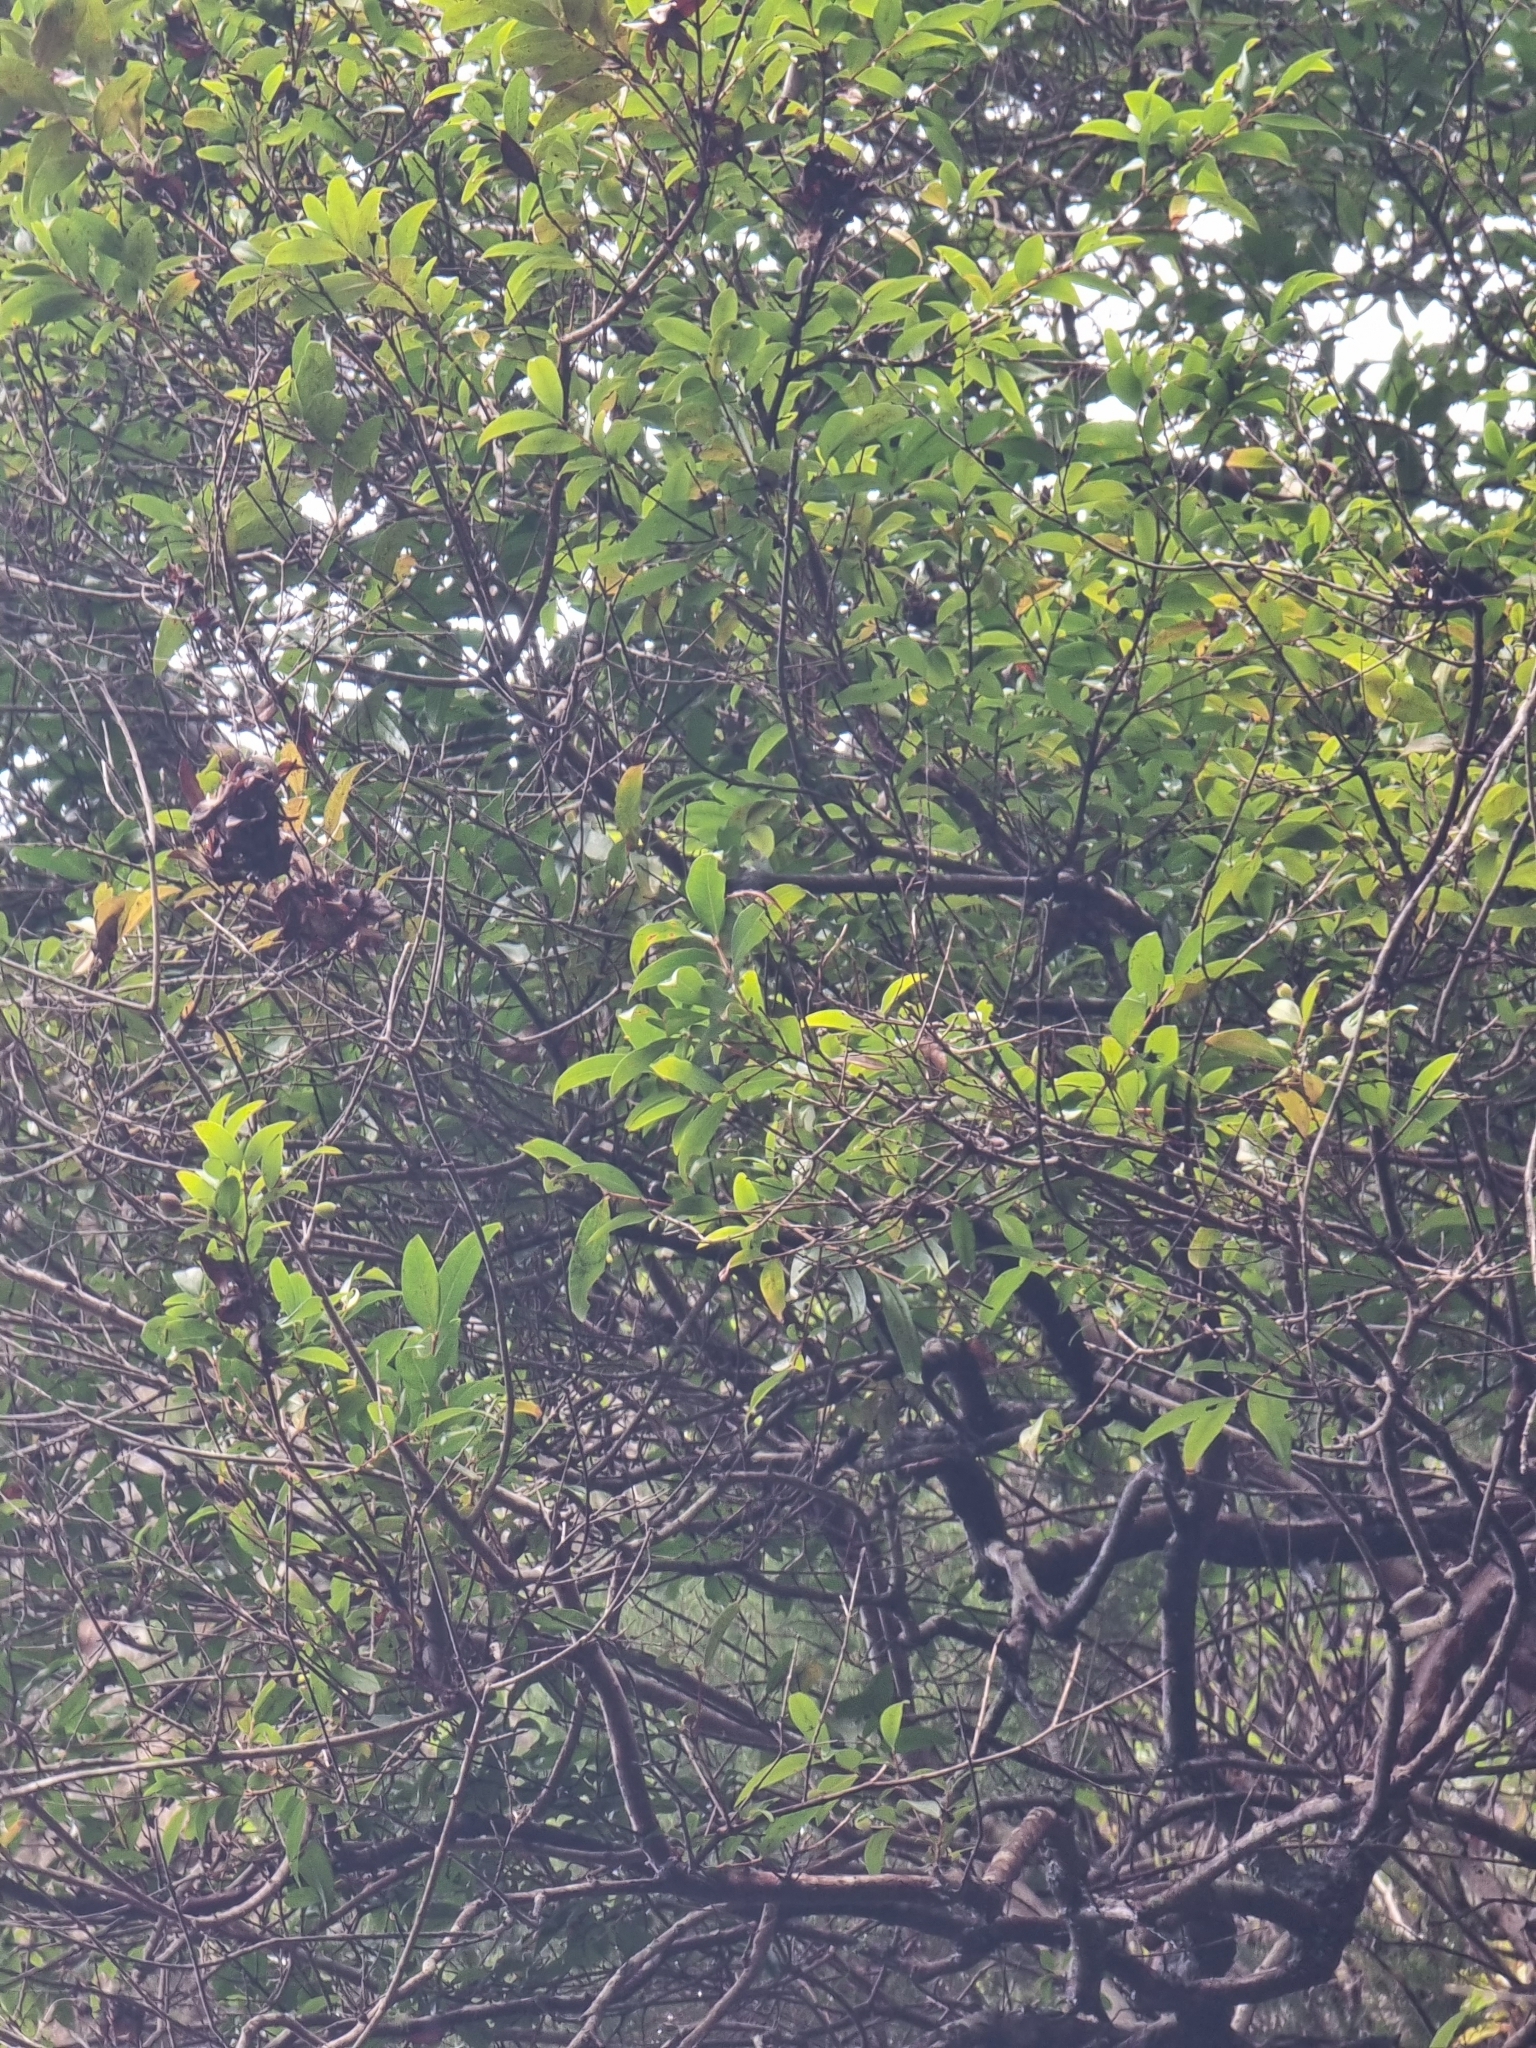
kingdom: Plantae
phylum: Tracheophyta
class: Magnoliopsida
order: Myrtales
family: Myrtaceae
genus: Myrtus
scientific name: Myrtus communis
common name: Myrtle
